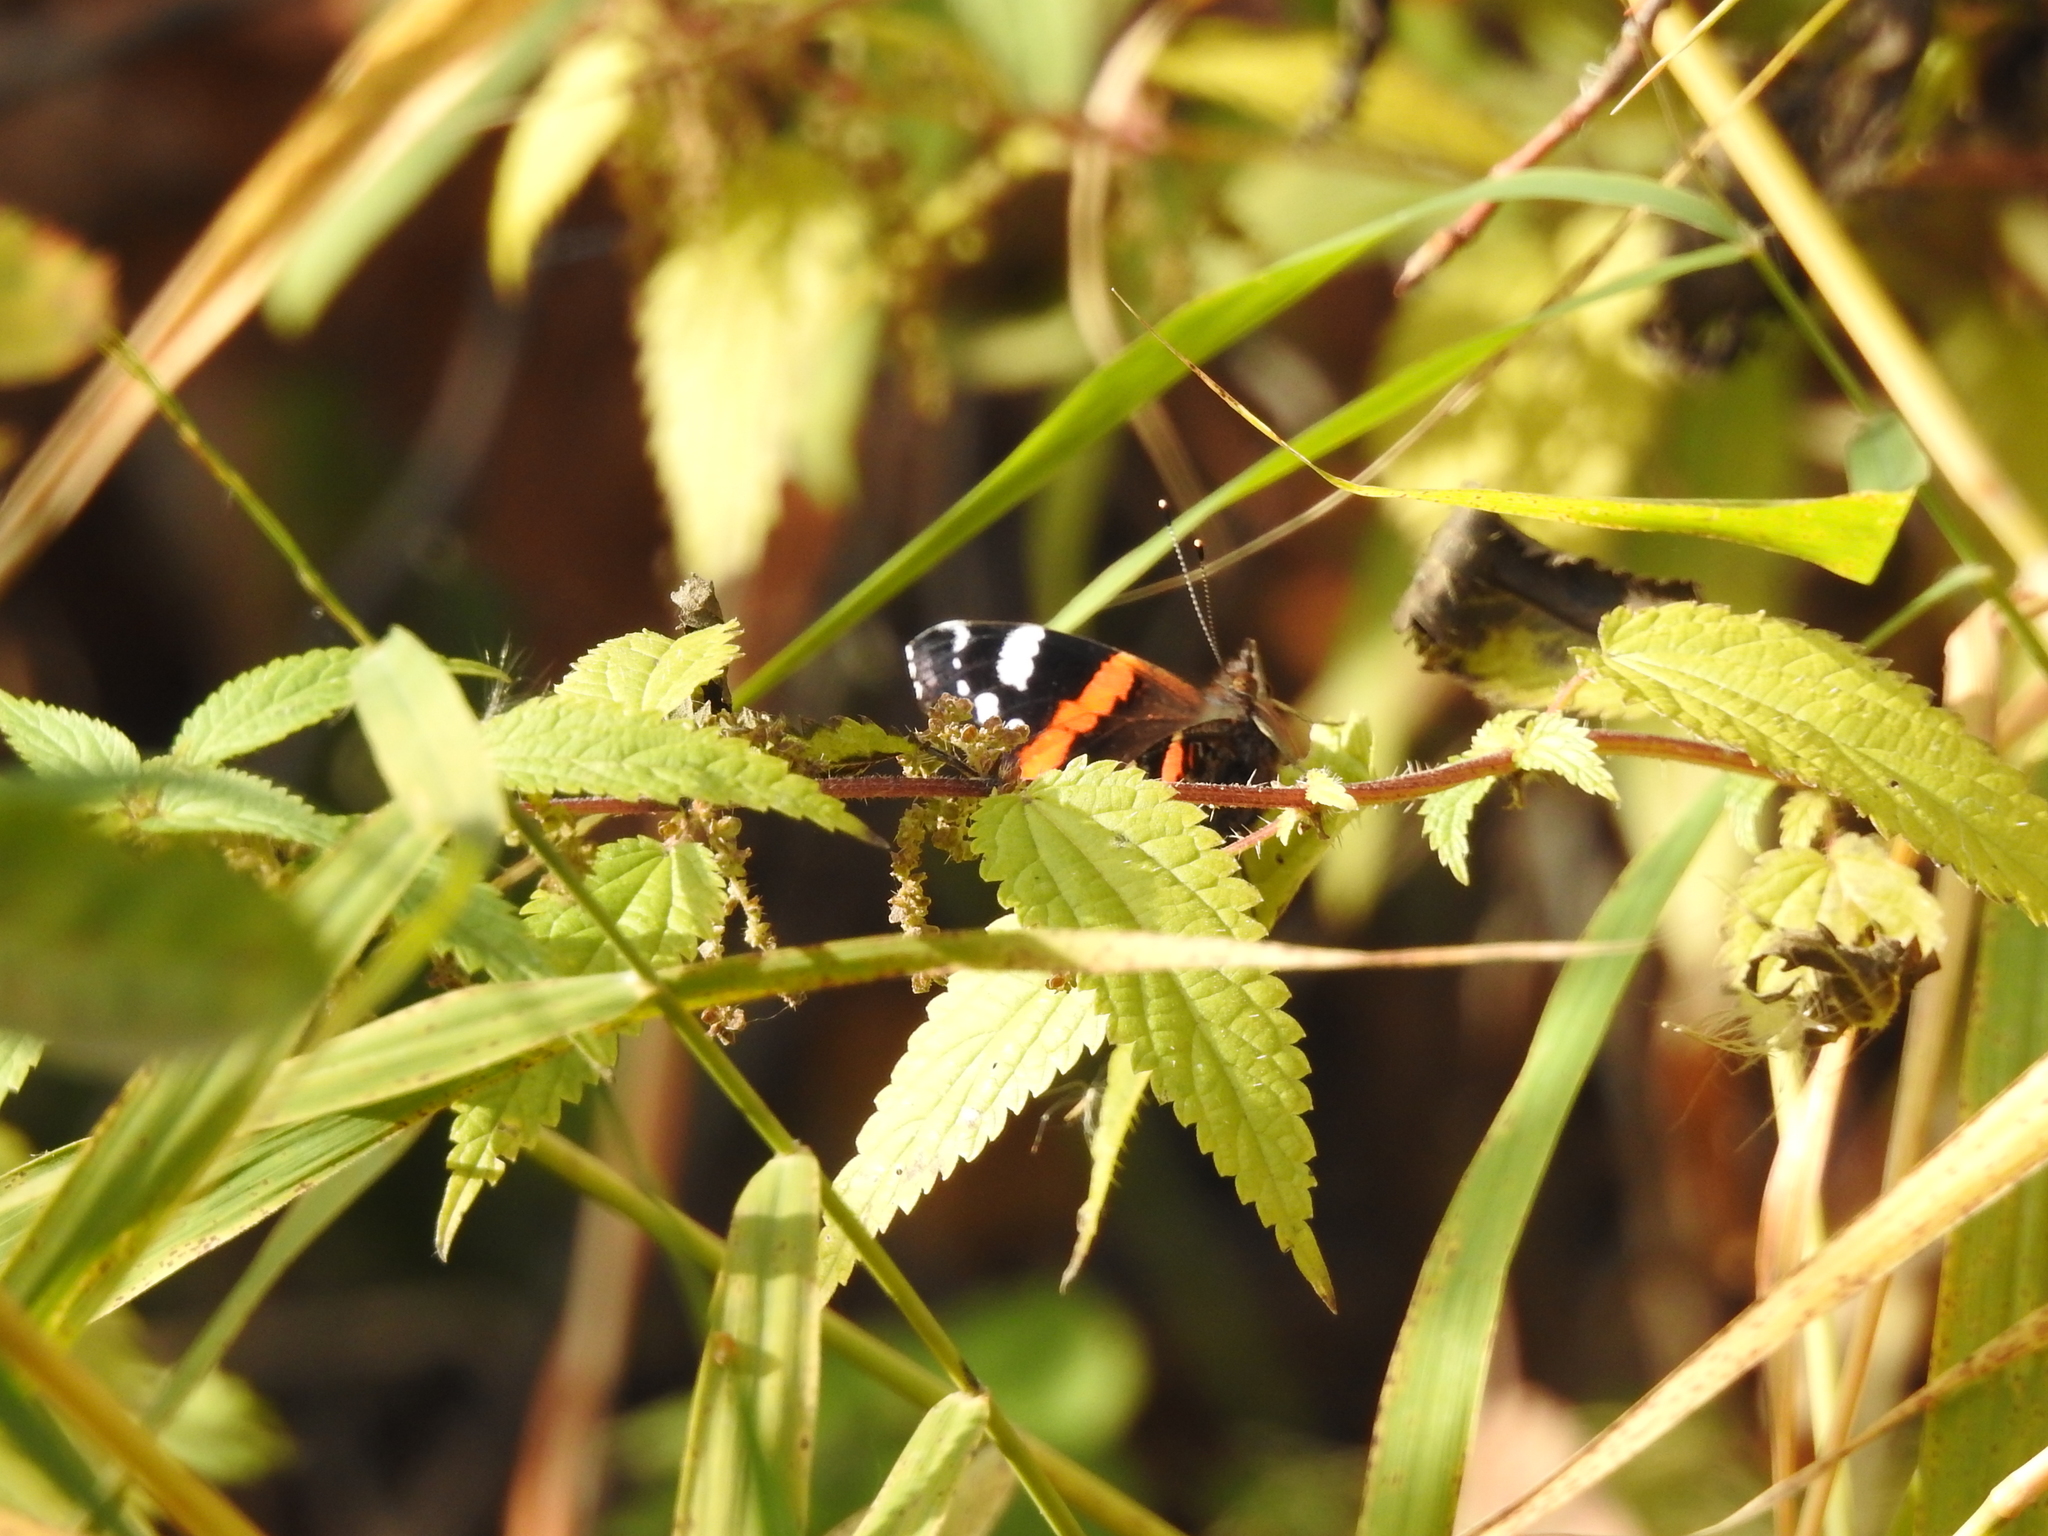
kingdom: Animalia
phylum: Arthropoda
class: Insecta
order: Lepidoptera
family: Nymphalidae
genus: Vanessa
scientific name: Vanessa atalanta
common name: Red admiral
